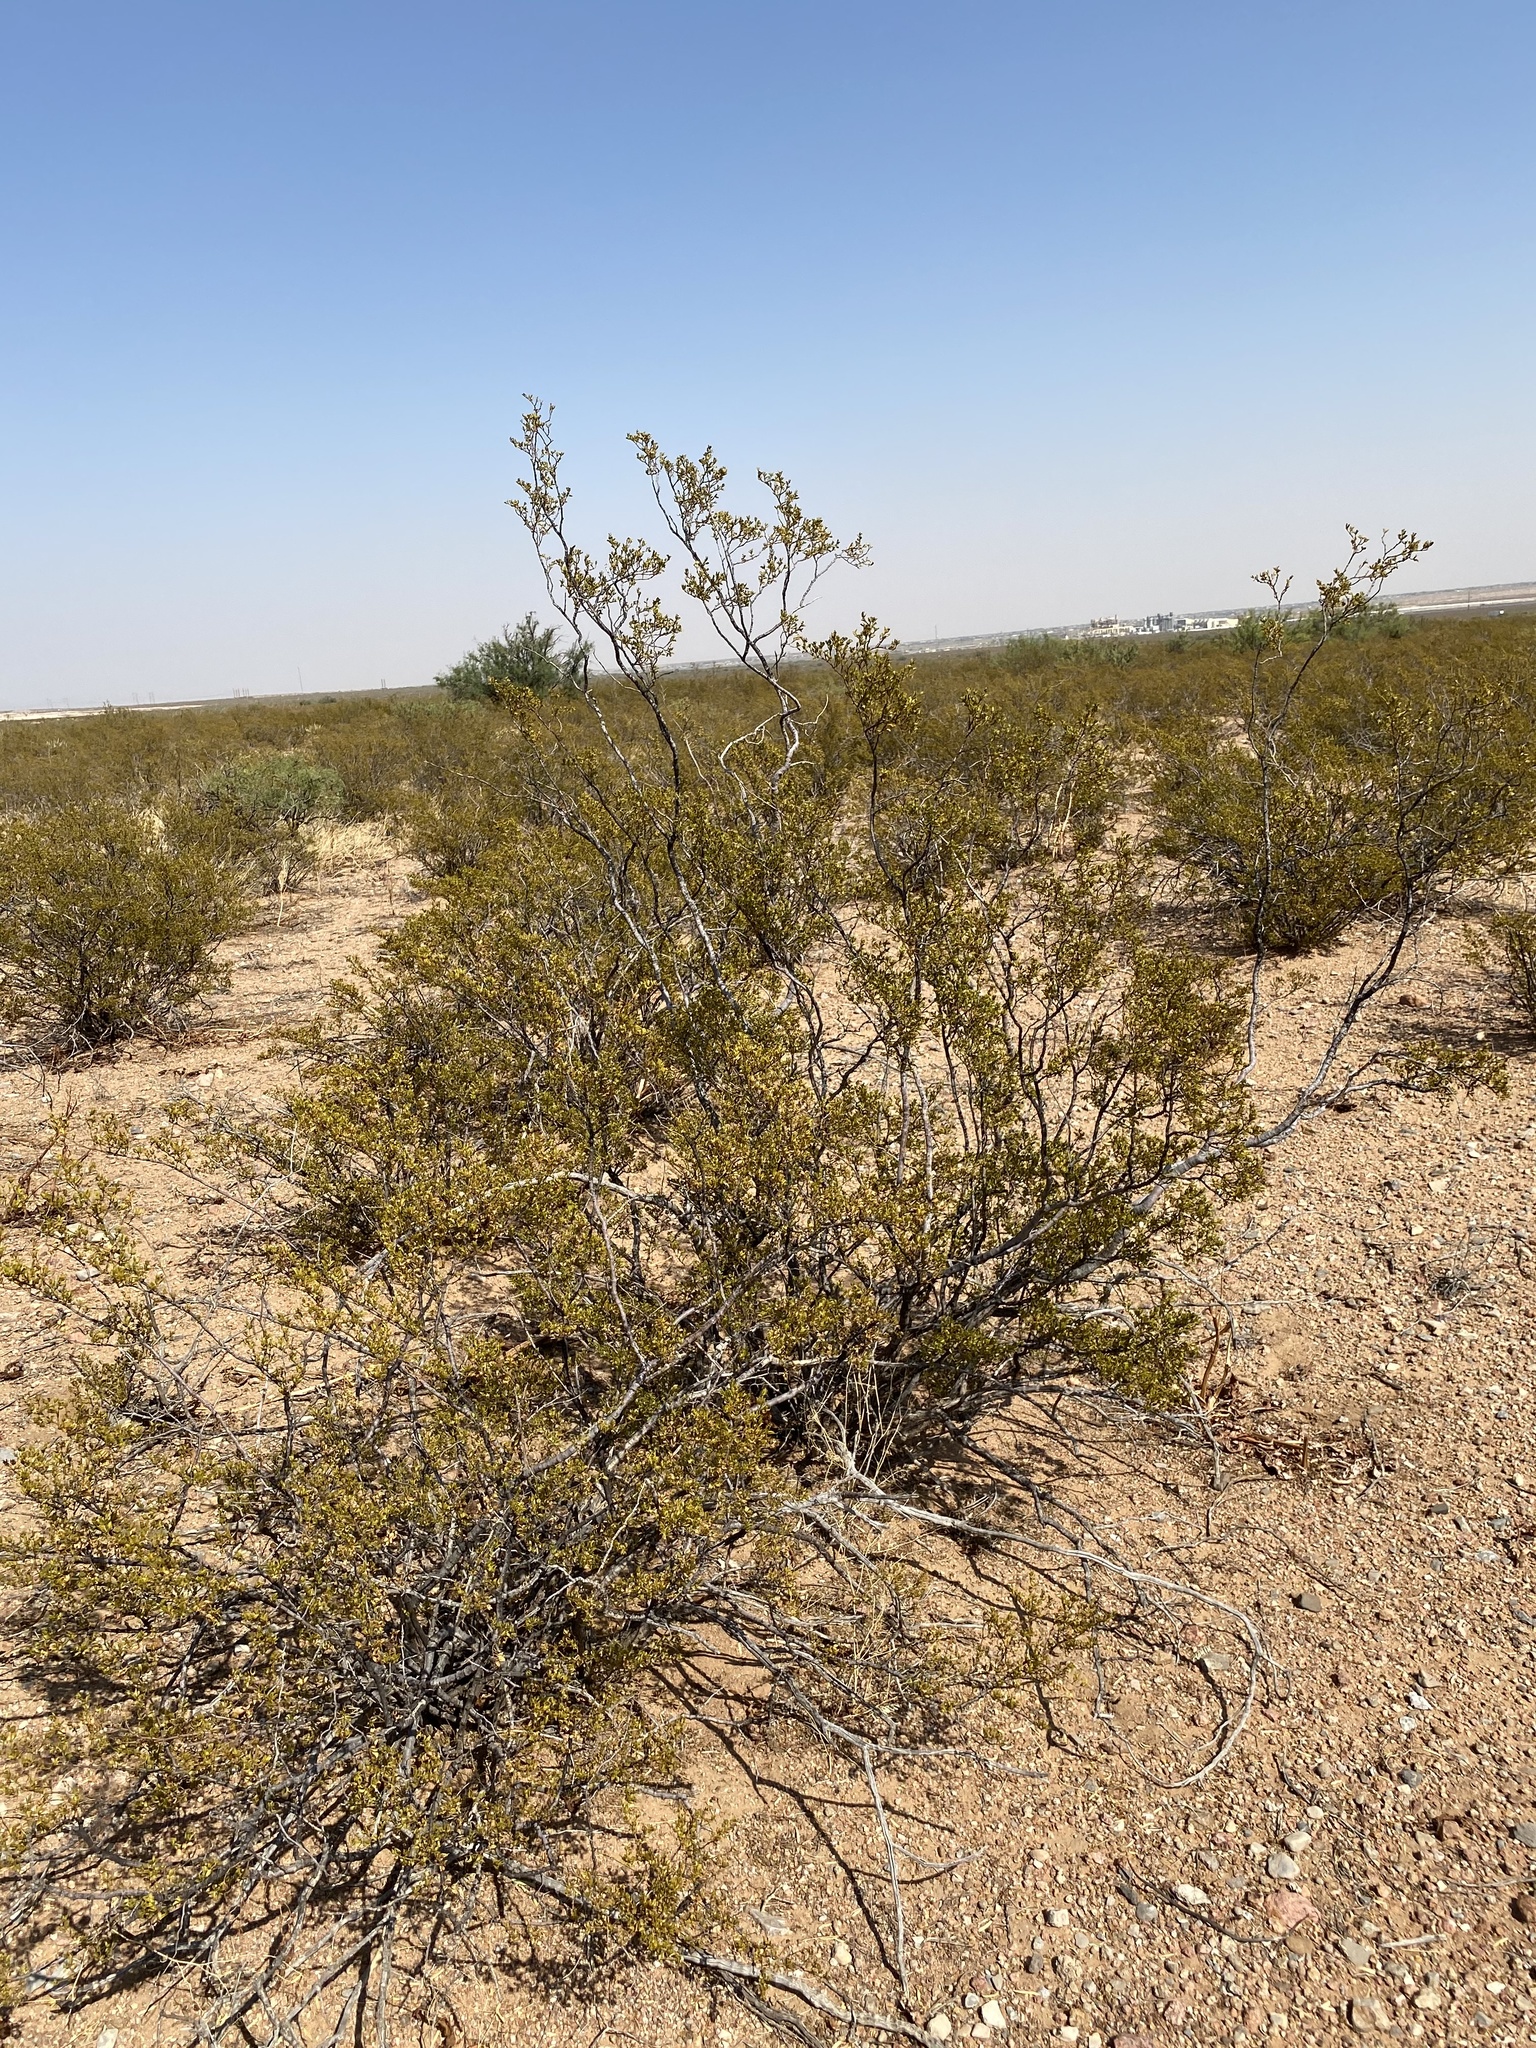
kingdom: Plantae
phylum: Tracheophyta
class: Magnoliopsida
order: Zygophyllales
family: Zygophyllaceae
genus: Larrea
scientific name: Larrea tridentata
